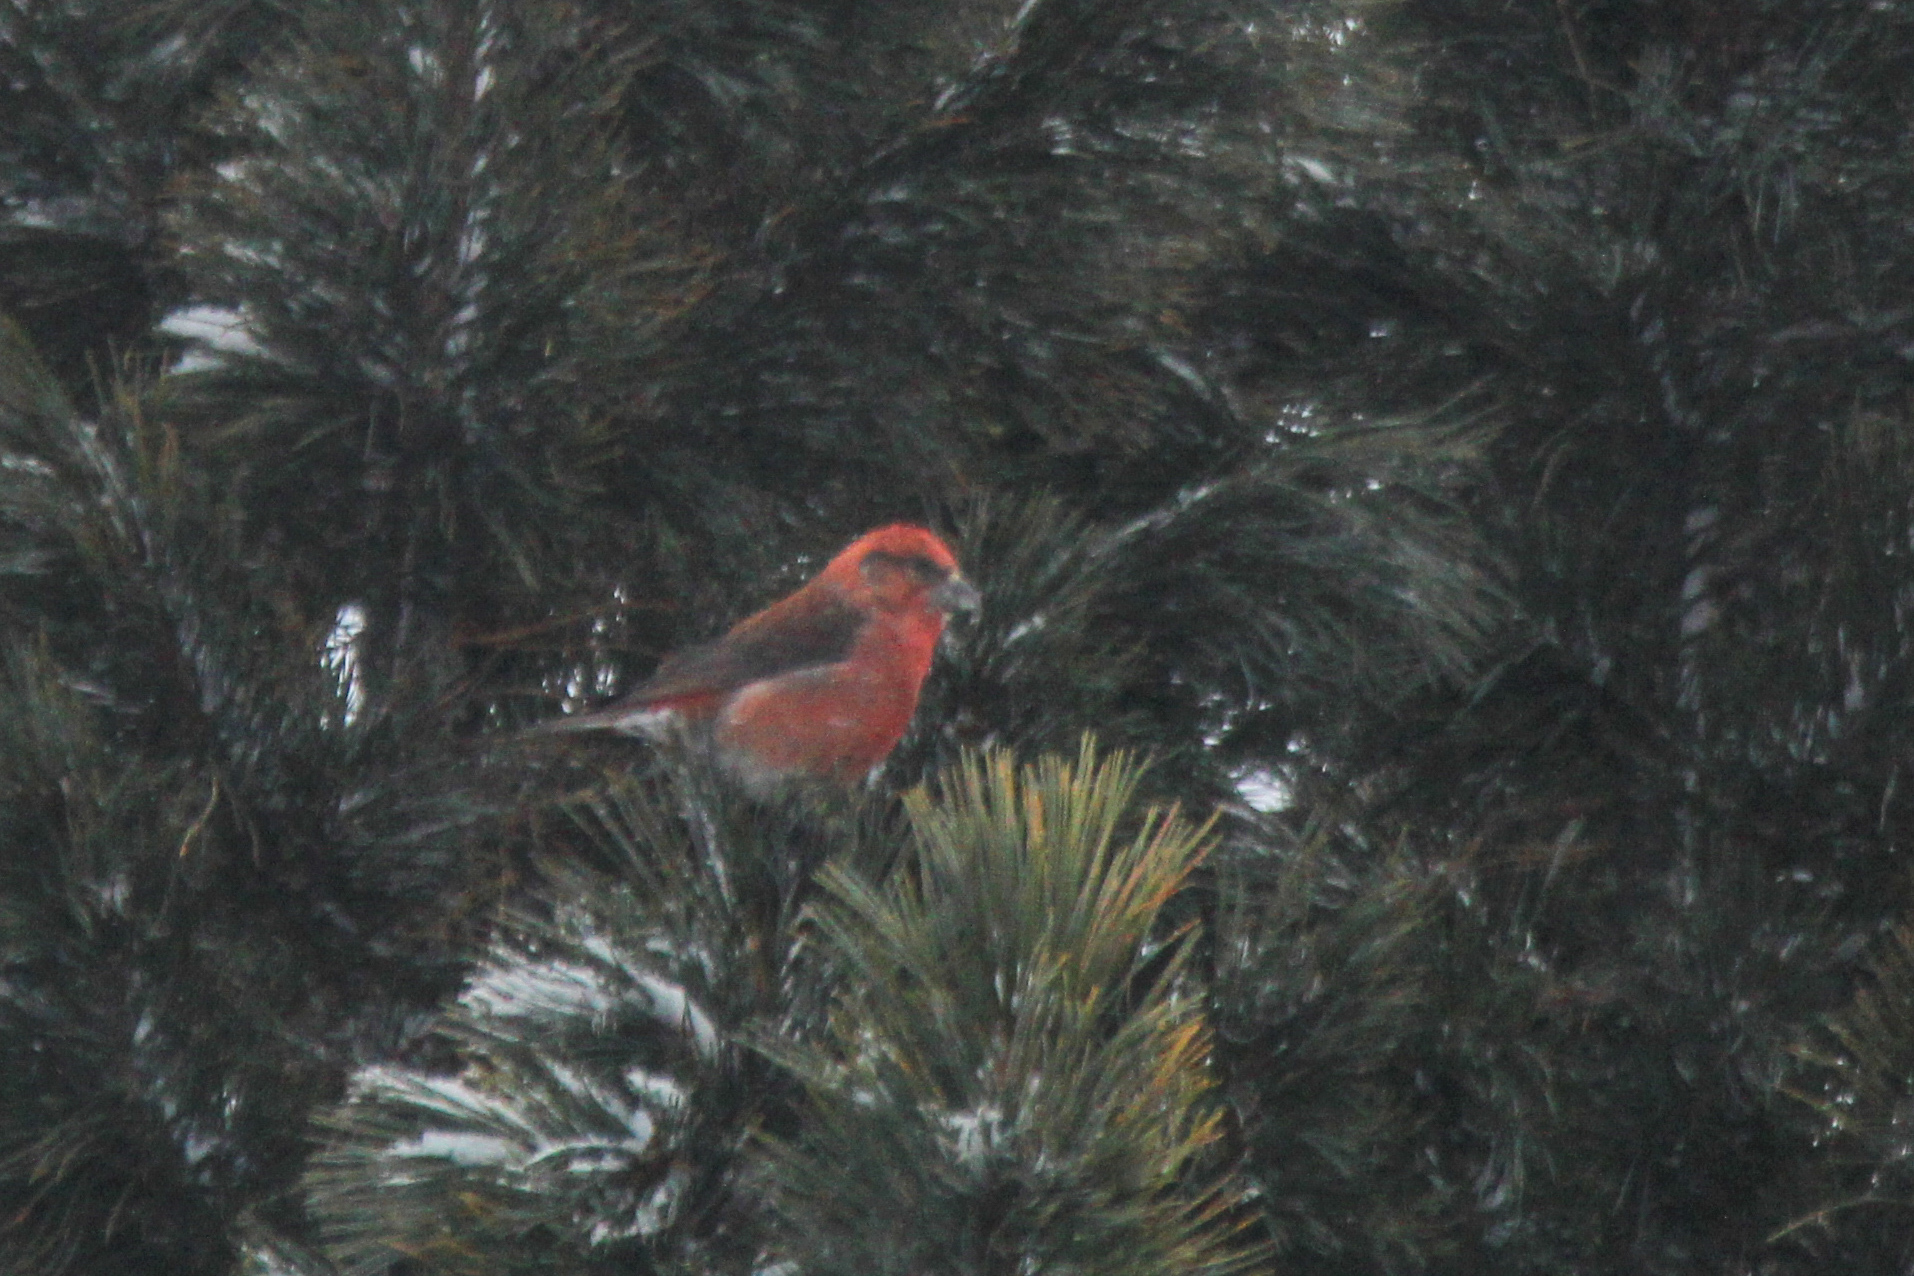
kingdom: Animalia
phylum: Chordata
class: Aves
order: Passeriformes
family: Fringillidae
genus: Loxia
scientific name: Loxia curvirostra
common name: Red crossbill
